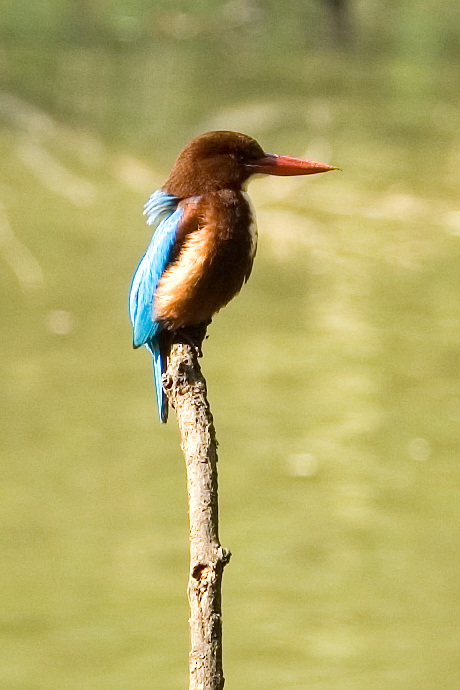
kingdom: Animalia
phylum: Chordata
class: Aves
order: Coraciiformes
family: Alcedinidae
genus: Halcyon
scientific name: Halcyon smyrnensis
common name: White-throated kingfisher
